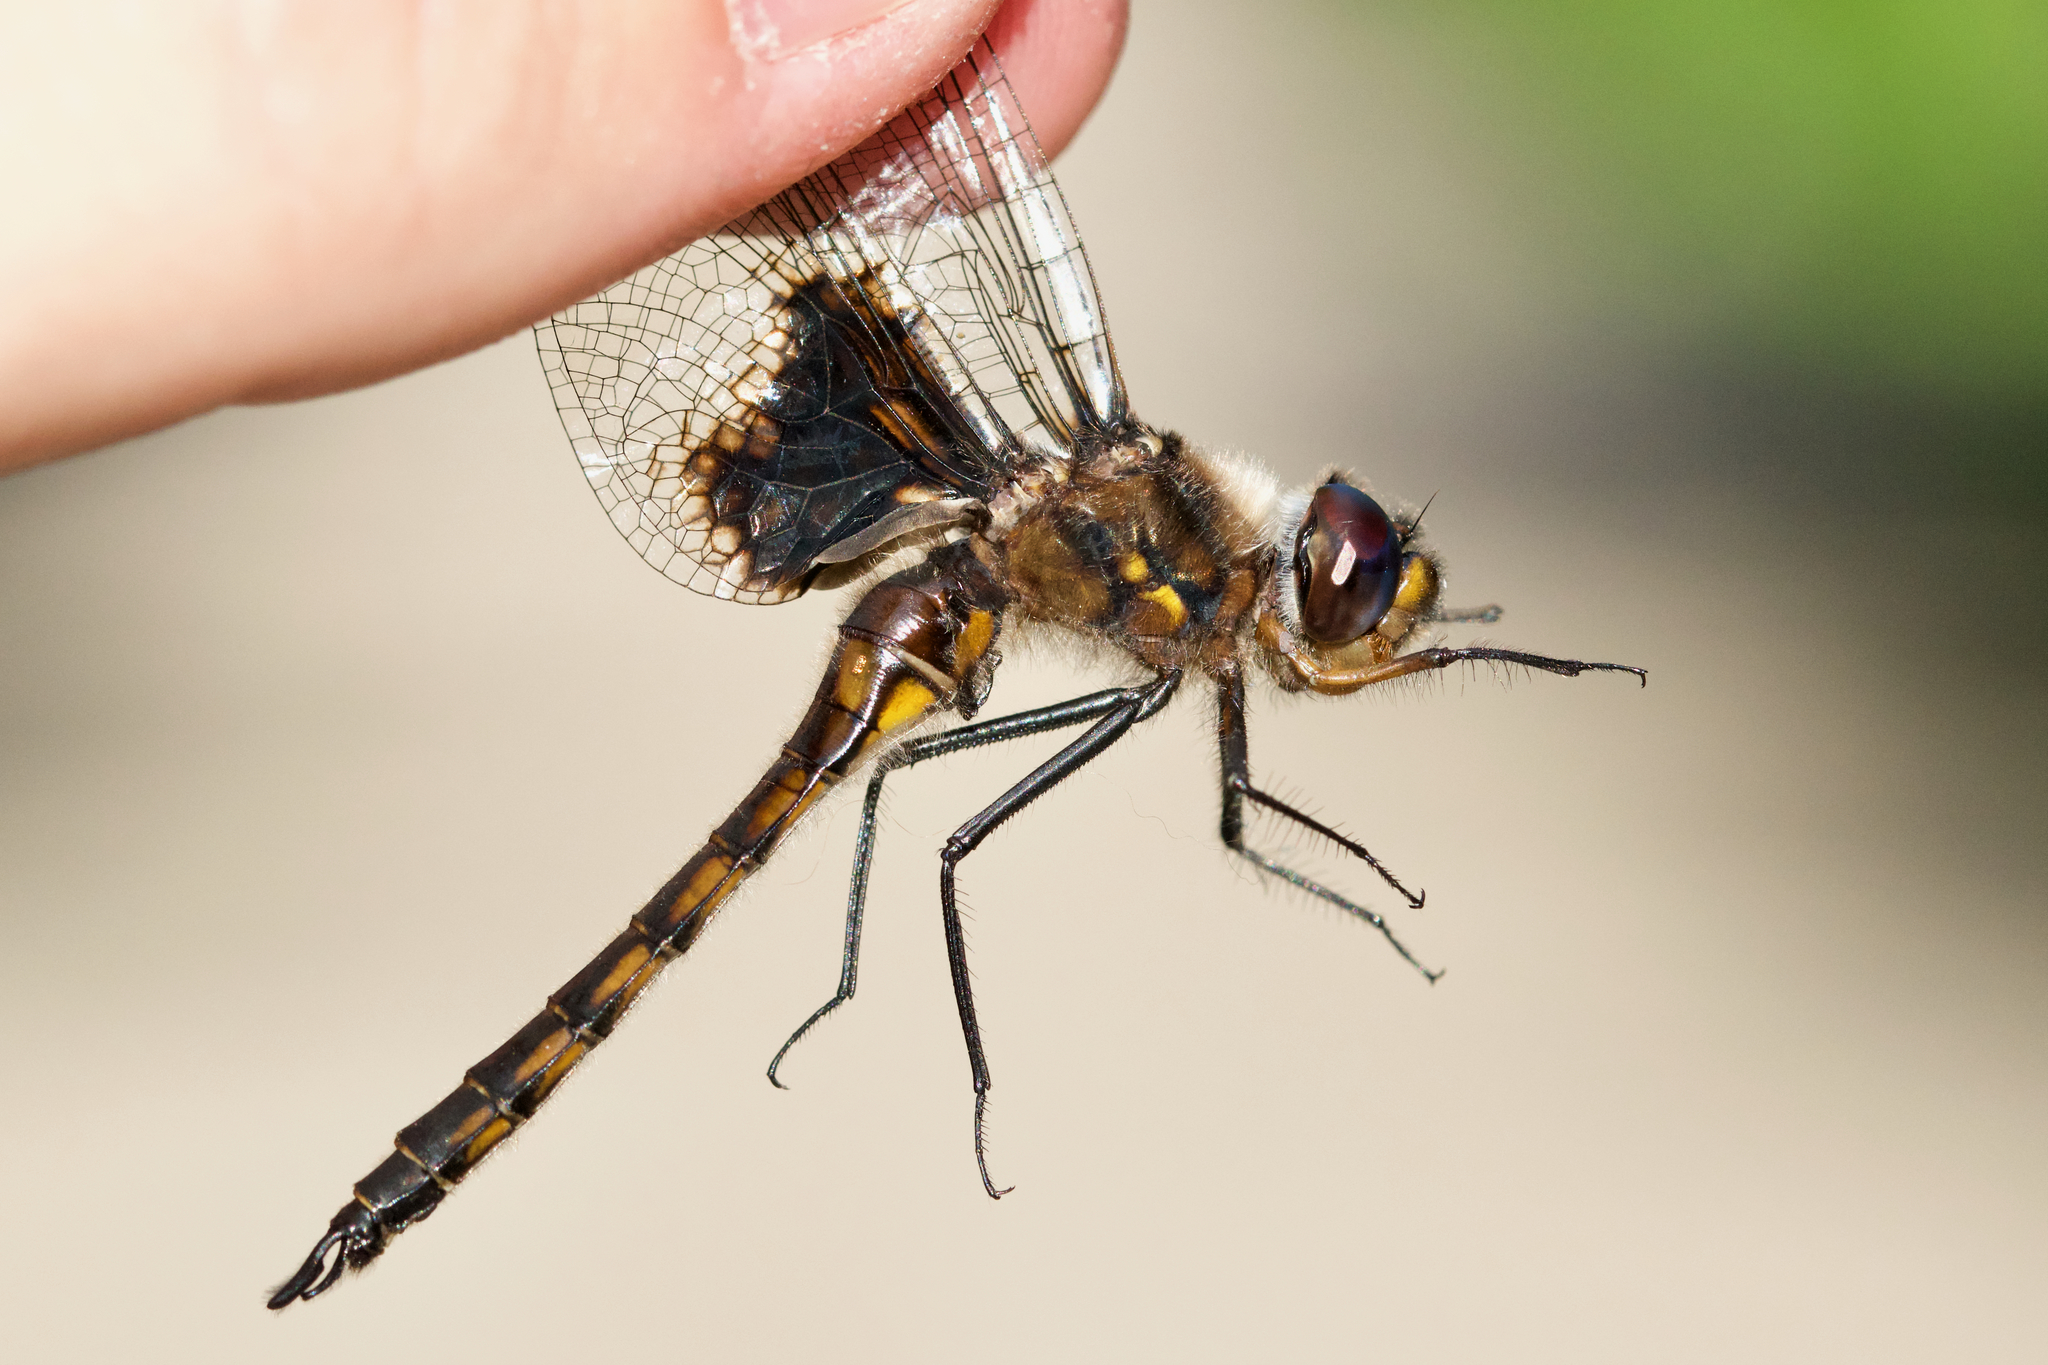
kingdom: Animalia
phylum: Arthropoda
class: Insecta
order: Odonata
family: Corduliidae
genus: Epitheca
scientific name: Epitheca cynosura
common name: Common baskettail
